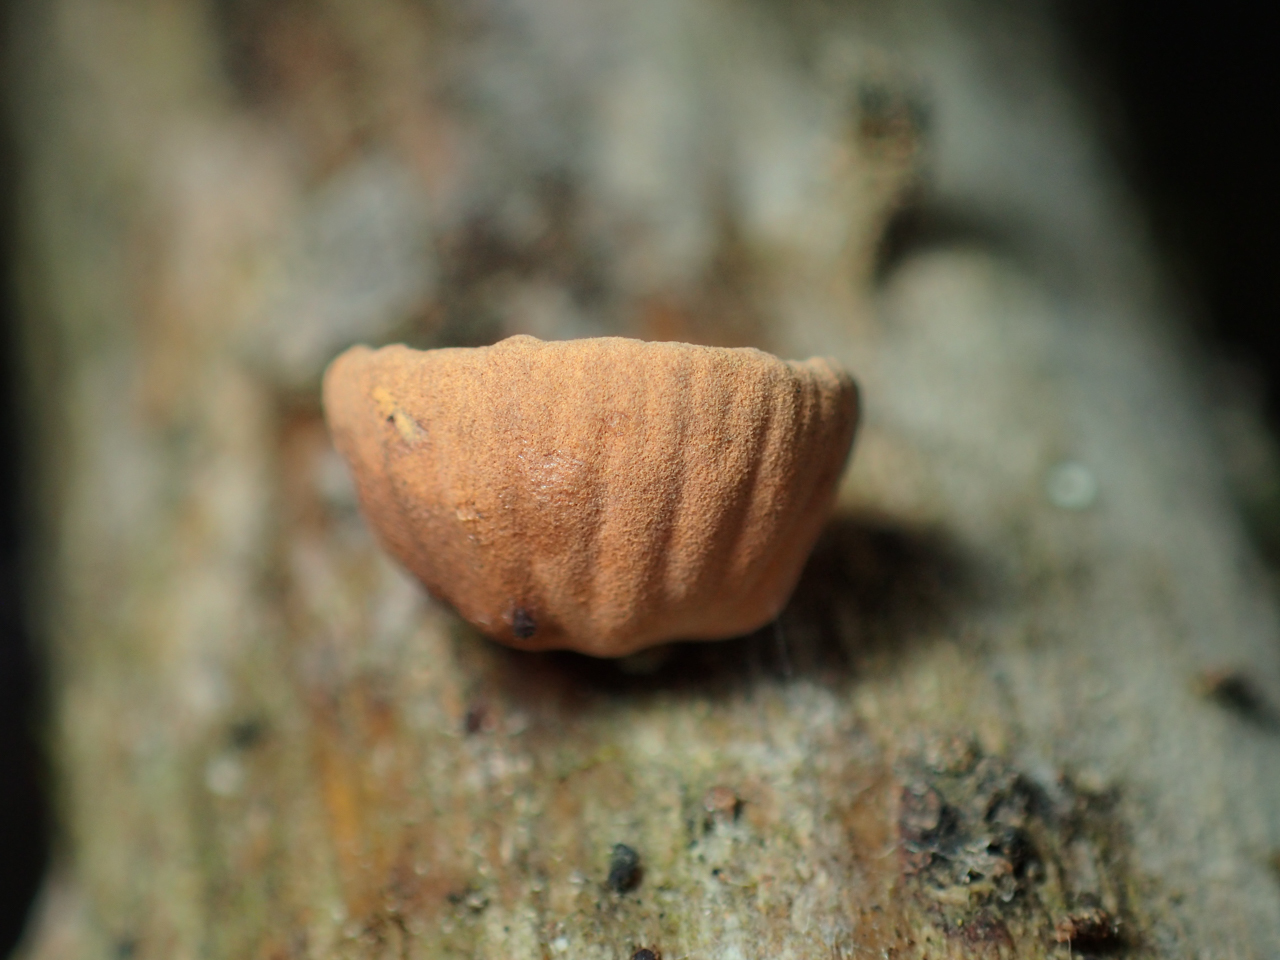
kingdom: Fungi
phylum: Basidiomycota
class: Agaricomycetes
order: Agaricales
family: Omphalotaceae
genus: Anthracophyllum
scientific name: Anthracophyllum lateritium
